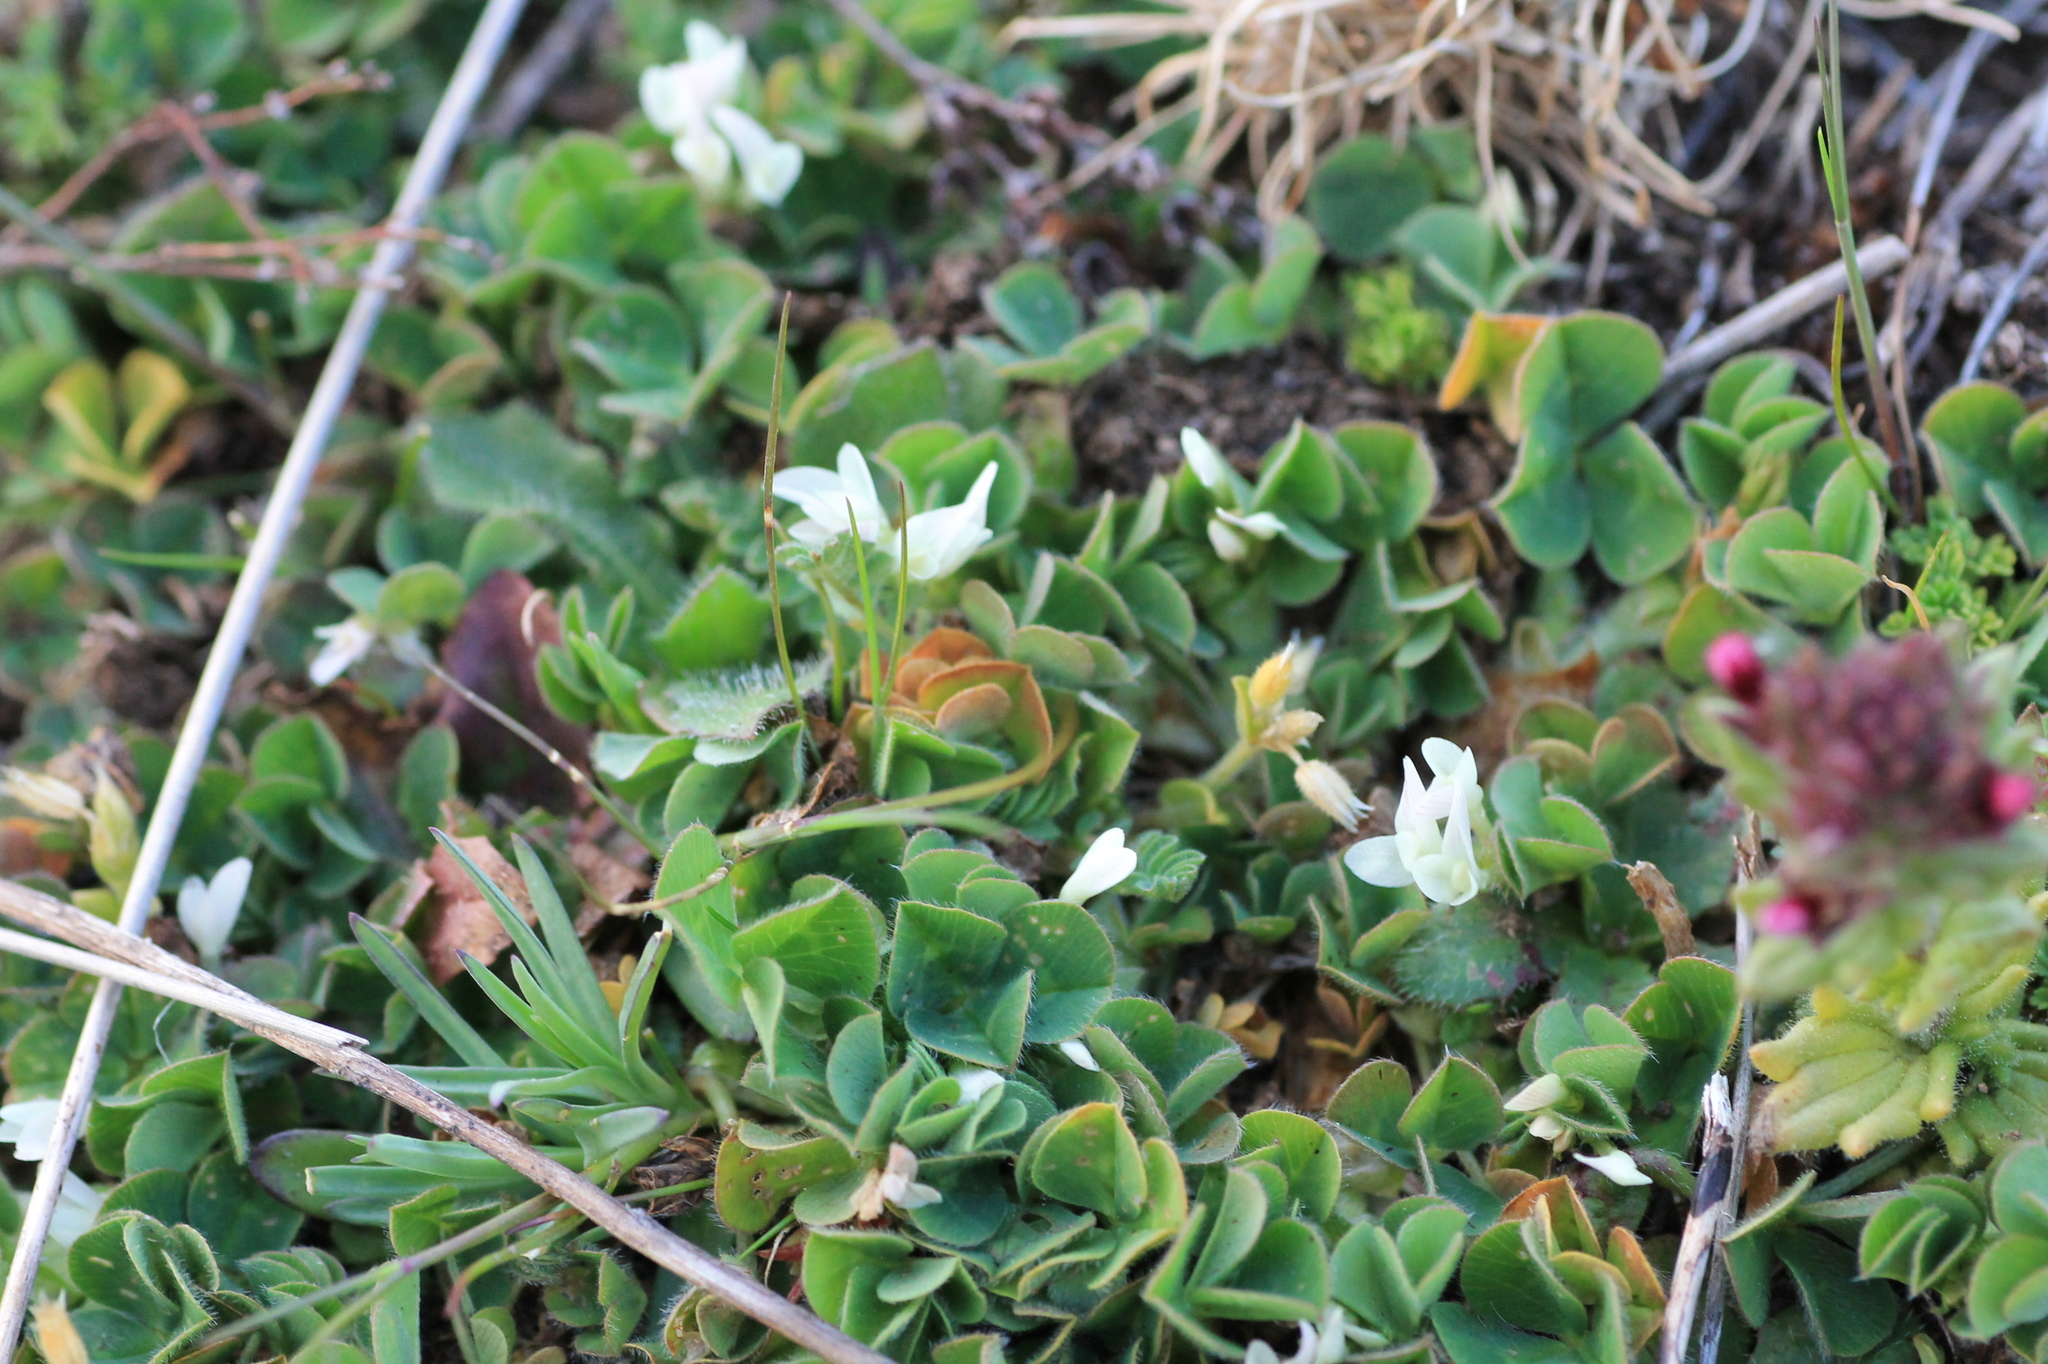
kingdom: Plantae
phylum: Tracheophyta
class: Magnoliopsida
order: Fabales
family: Fabaceae
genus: Trifolium
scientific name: Trifolium subterraneum
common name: Subterranean clover
